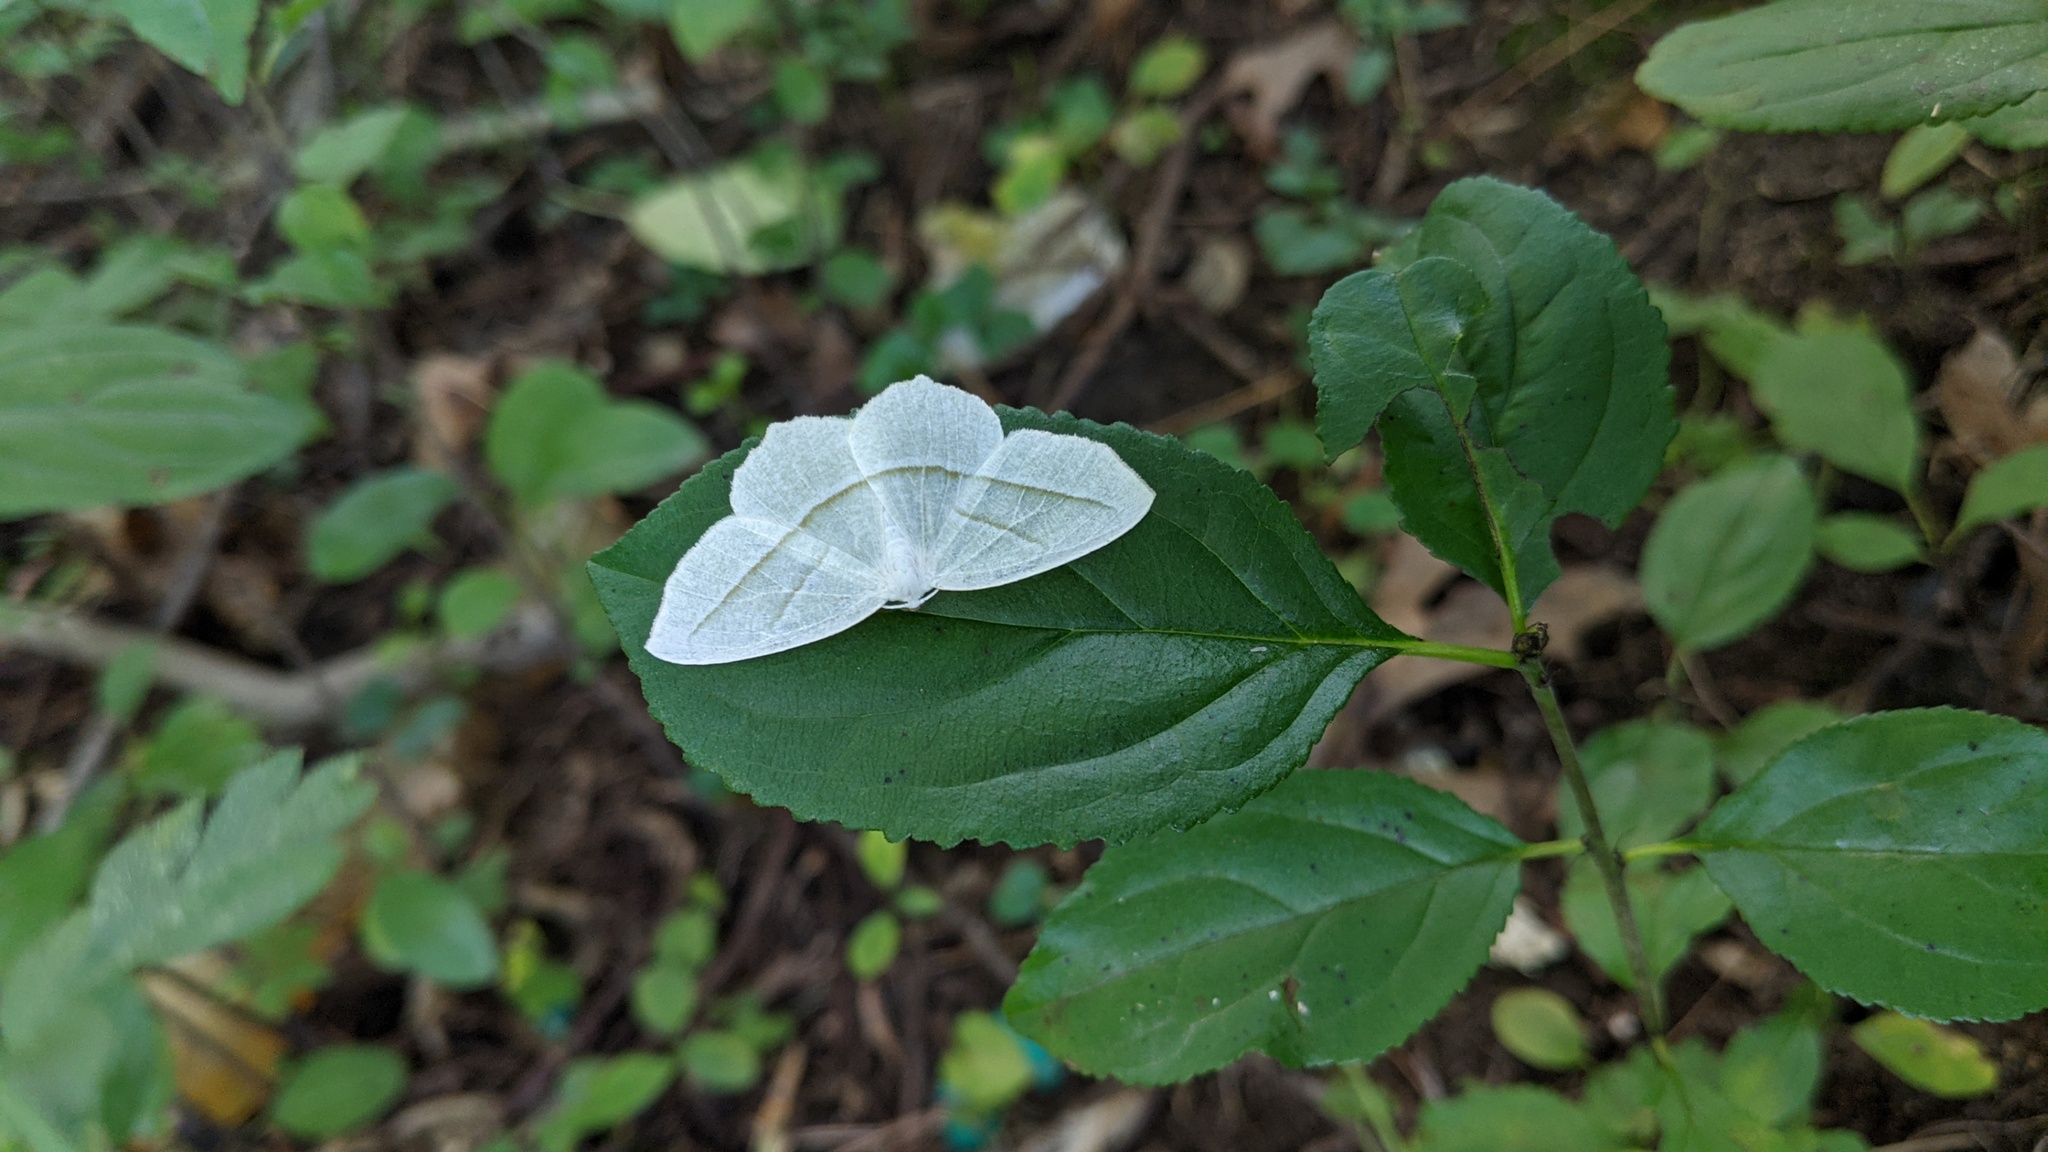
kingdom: Plantae
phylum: Tracheophyta
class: Magnoliopsida
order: Rosales
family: Rhamnaceae
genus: Rhamnus
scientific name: Rhamnus cathartica
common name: Common buckthorn
